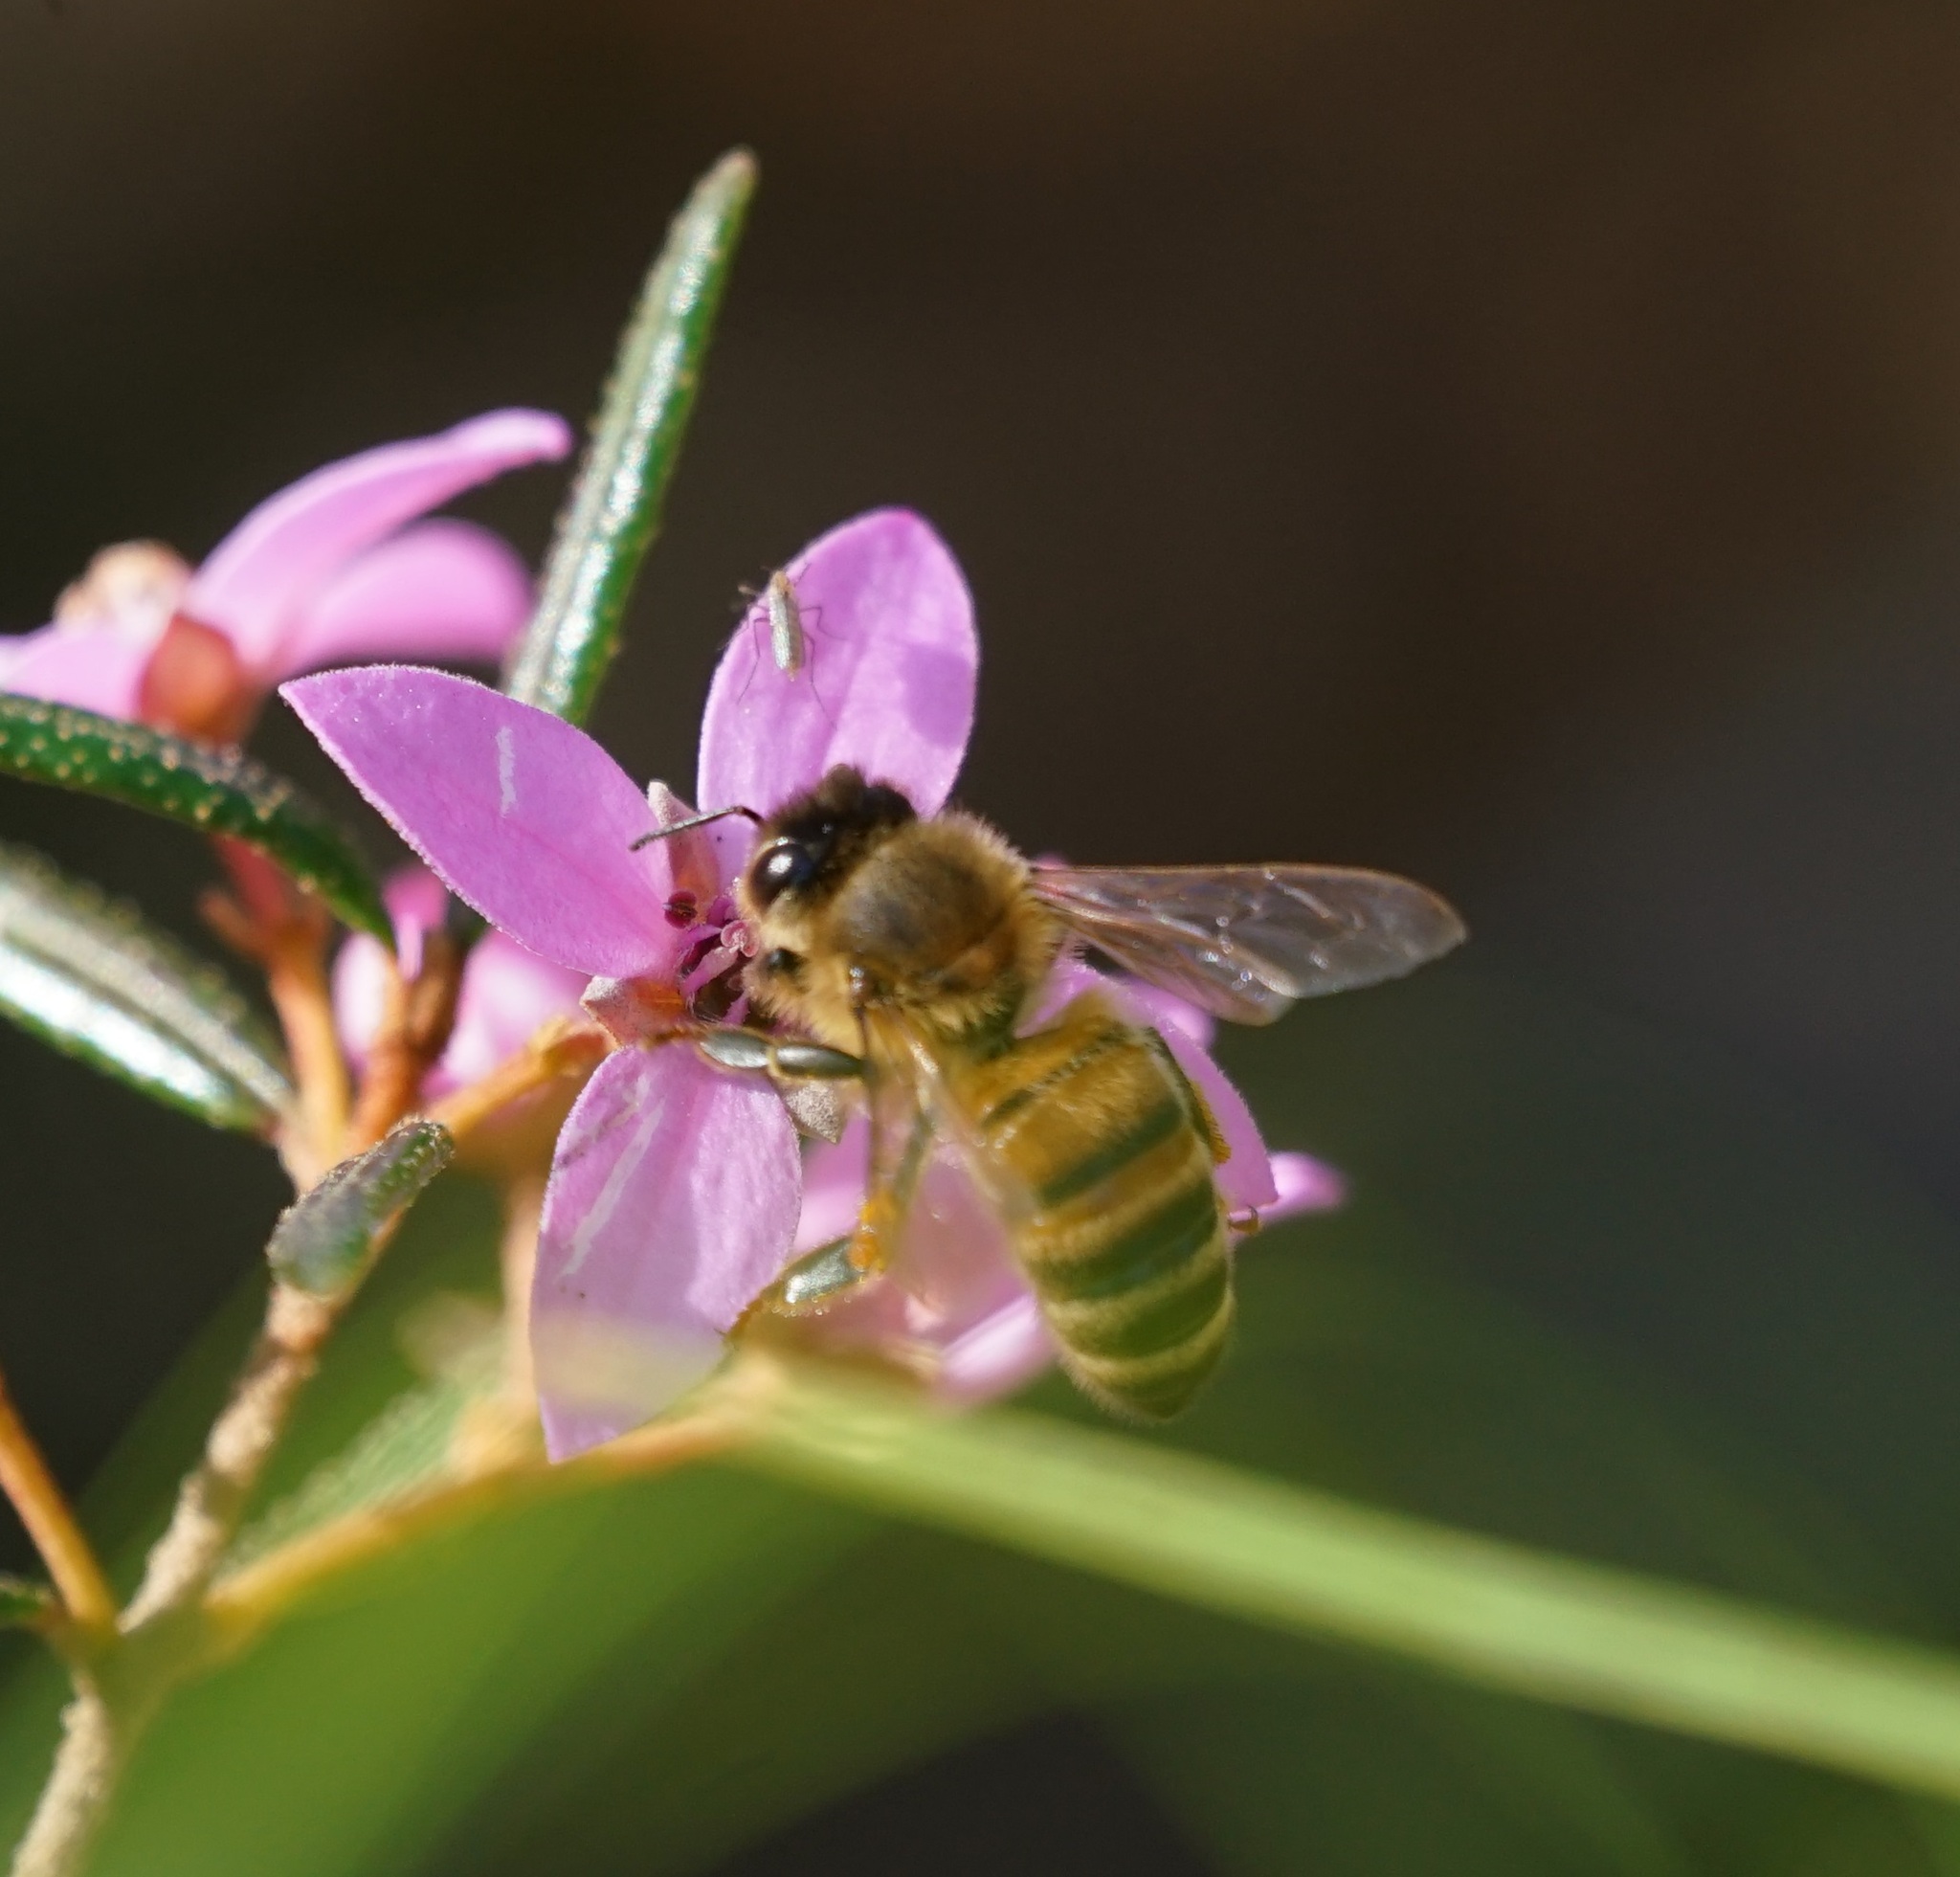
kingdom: Animalia
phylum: Arthropoda
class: Insecta
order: Hymenoptera
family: Apidae
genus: Apis
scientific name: Apis mellifera
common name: Honey bee
